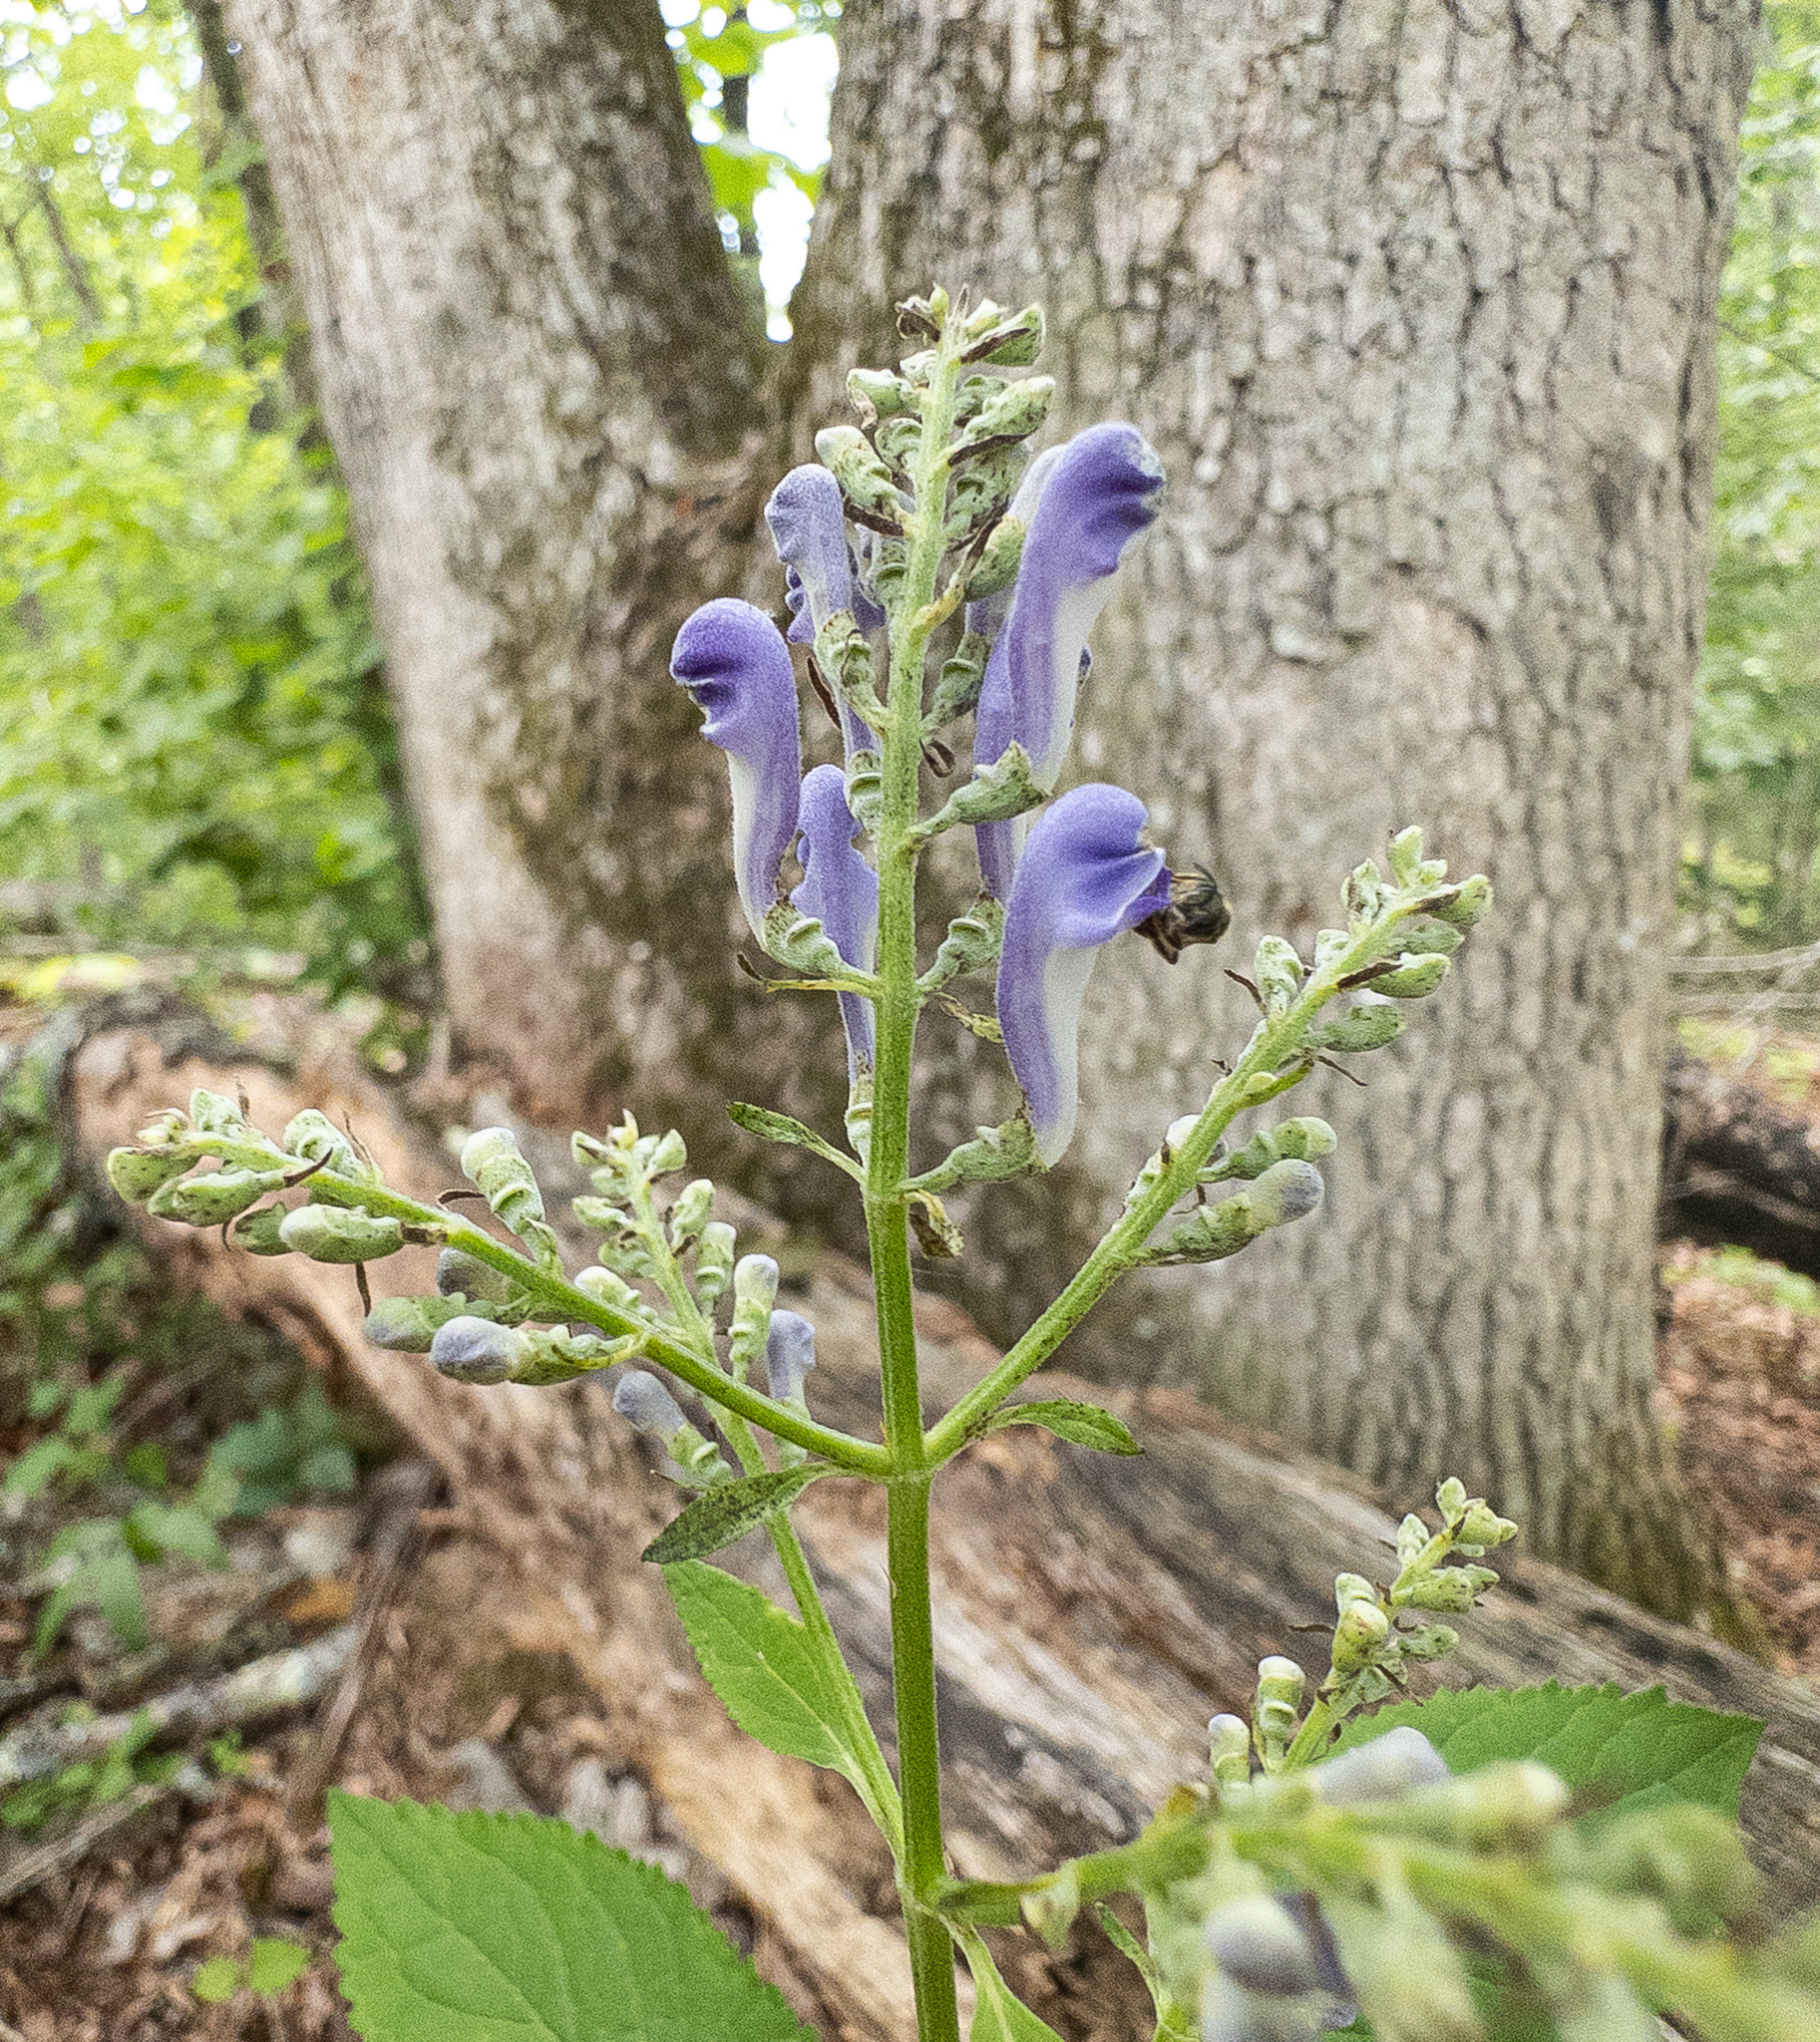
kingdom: Plantae
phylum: Tracheophyta
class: Magnoliopsida
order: Lamiales
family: Lamiaceae
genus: Scutellaria
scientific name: Scutellaria incana
